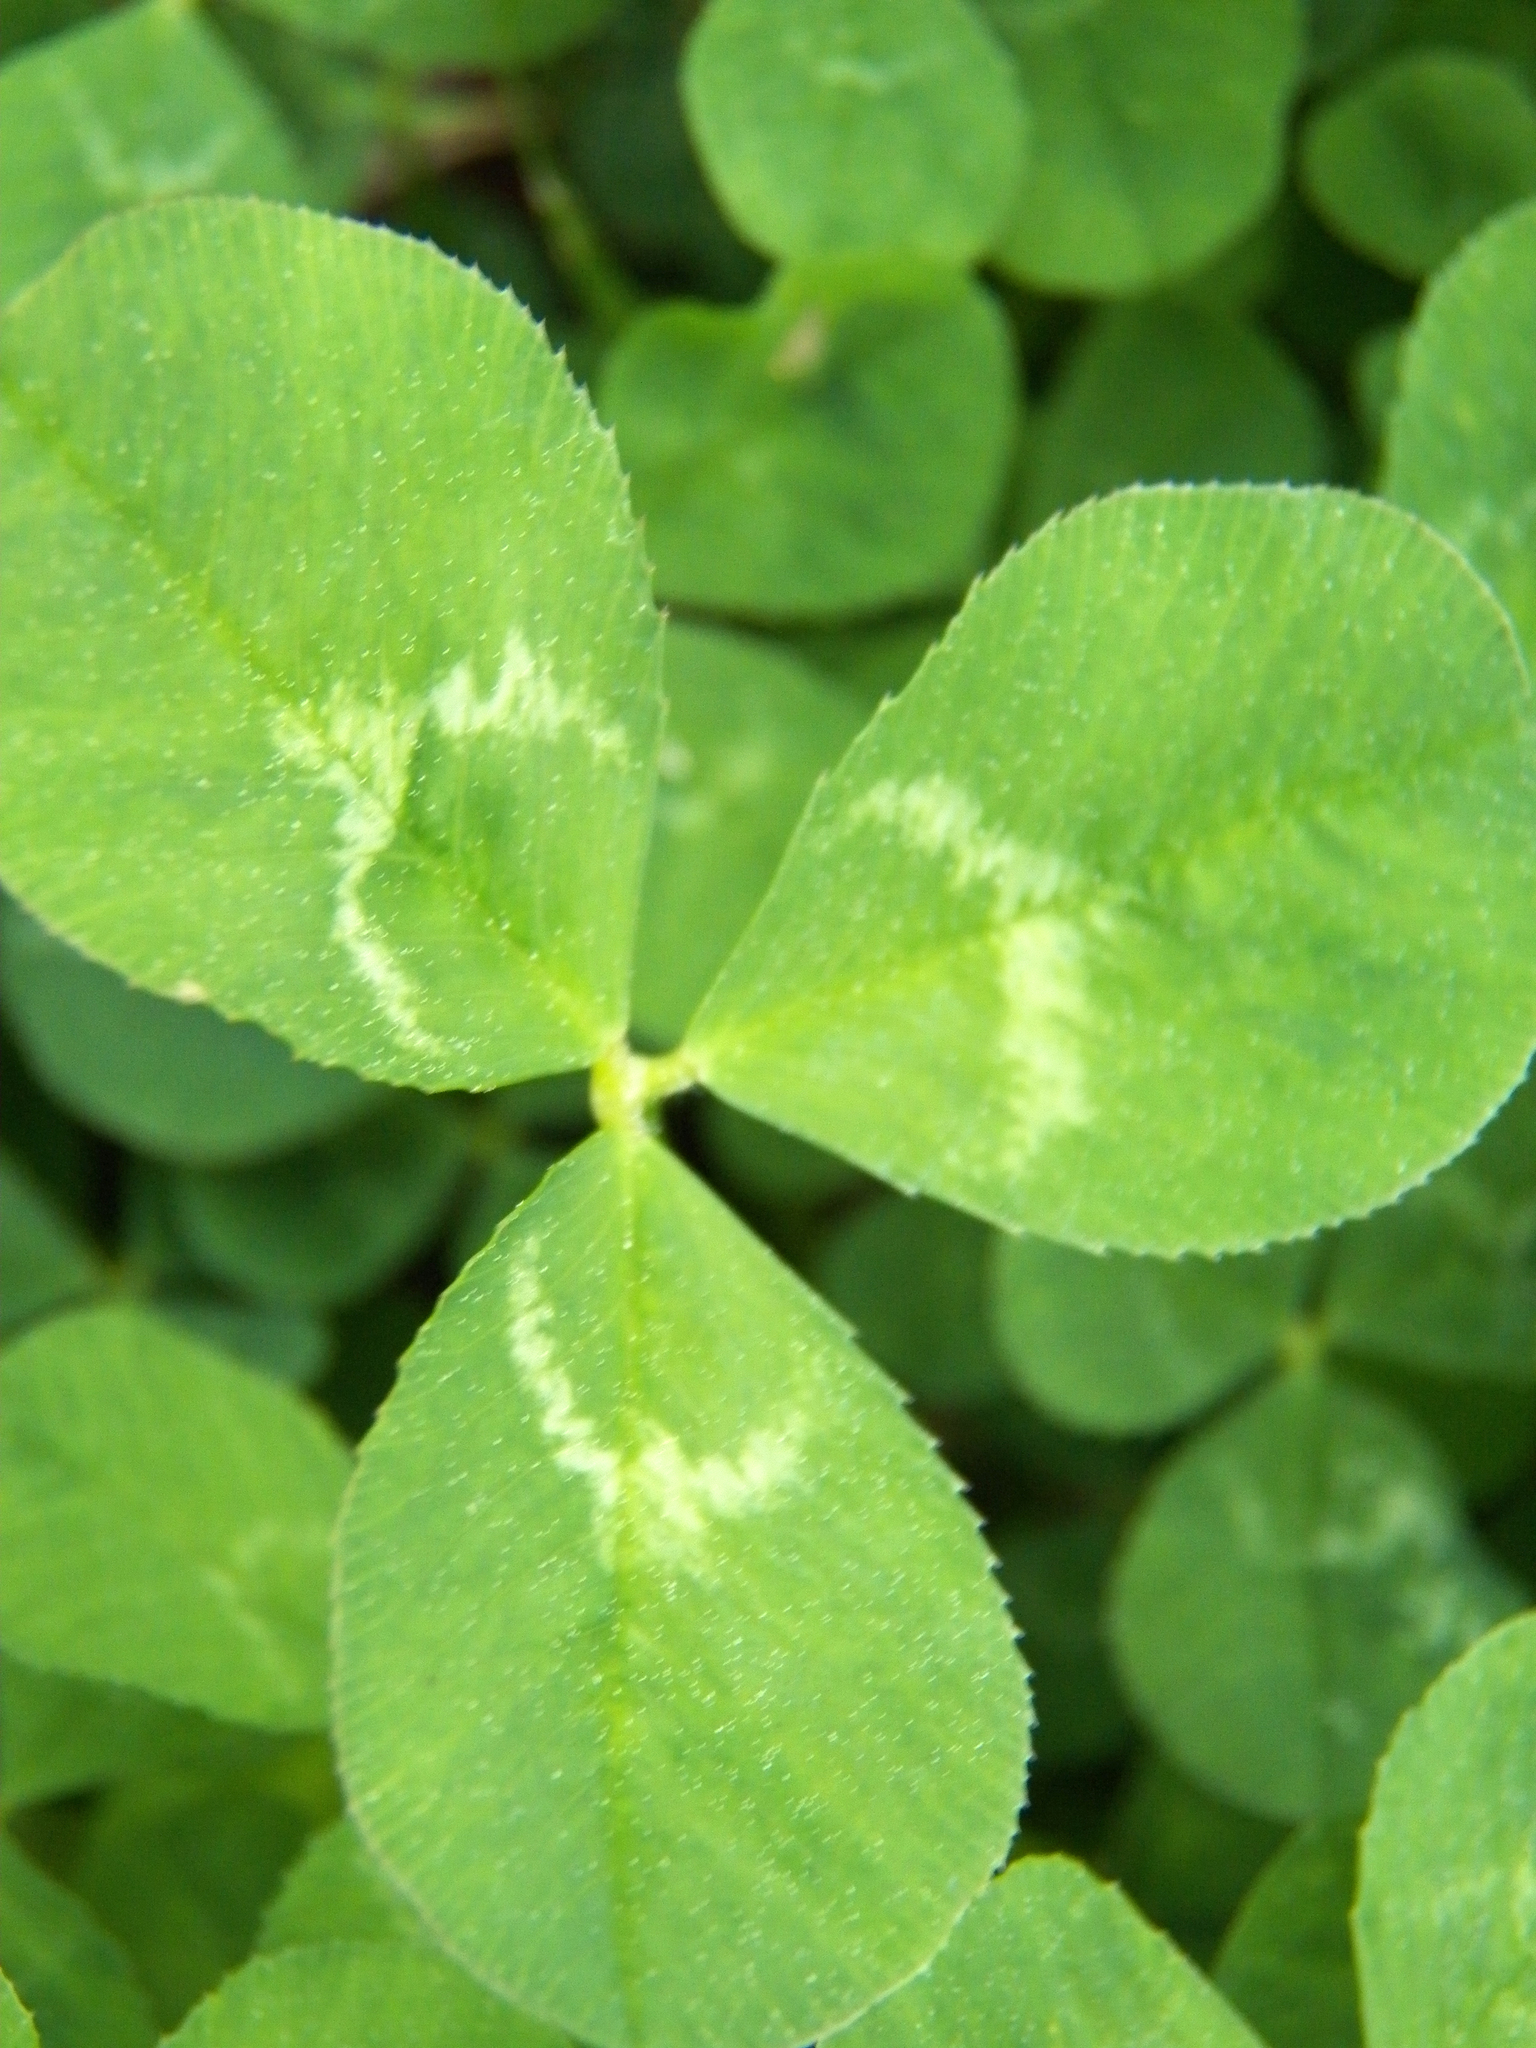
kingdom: Plantae
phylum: Tracheophyta
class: Magnoliopsida
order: Fabales
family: Fabaceae
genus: Trifolium
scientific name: Trifolium repens
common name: White clover
